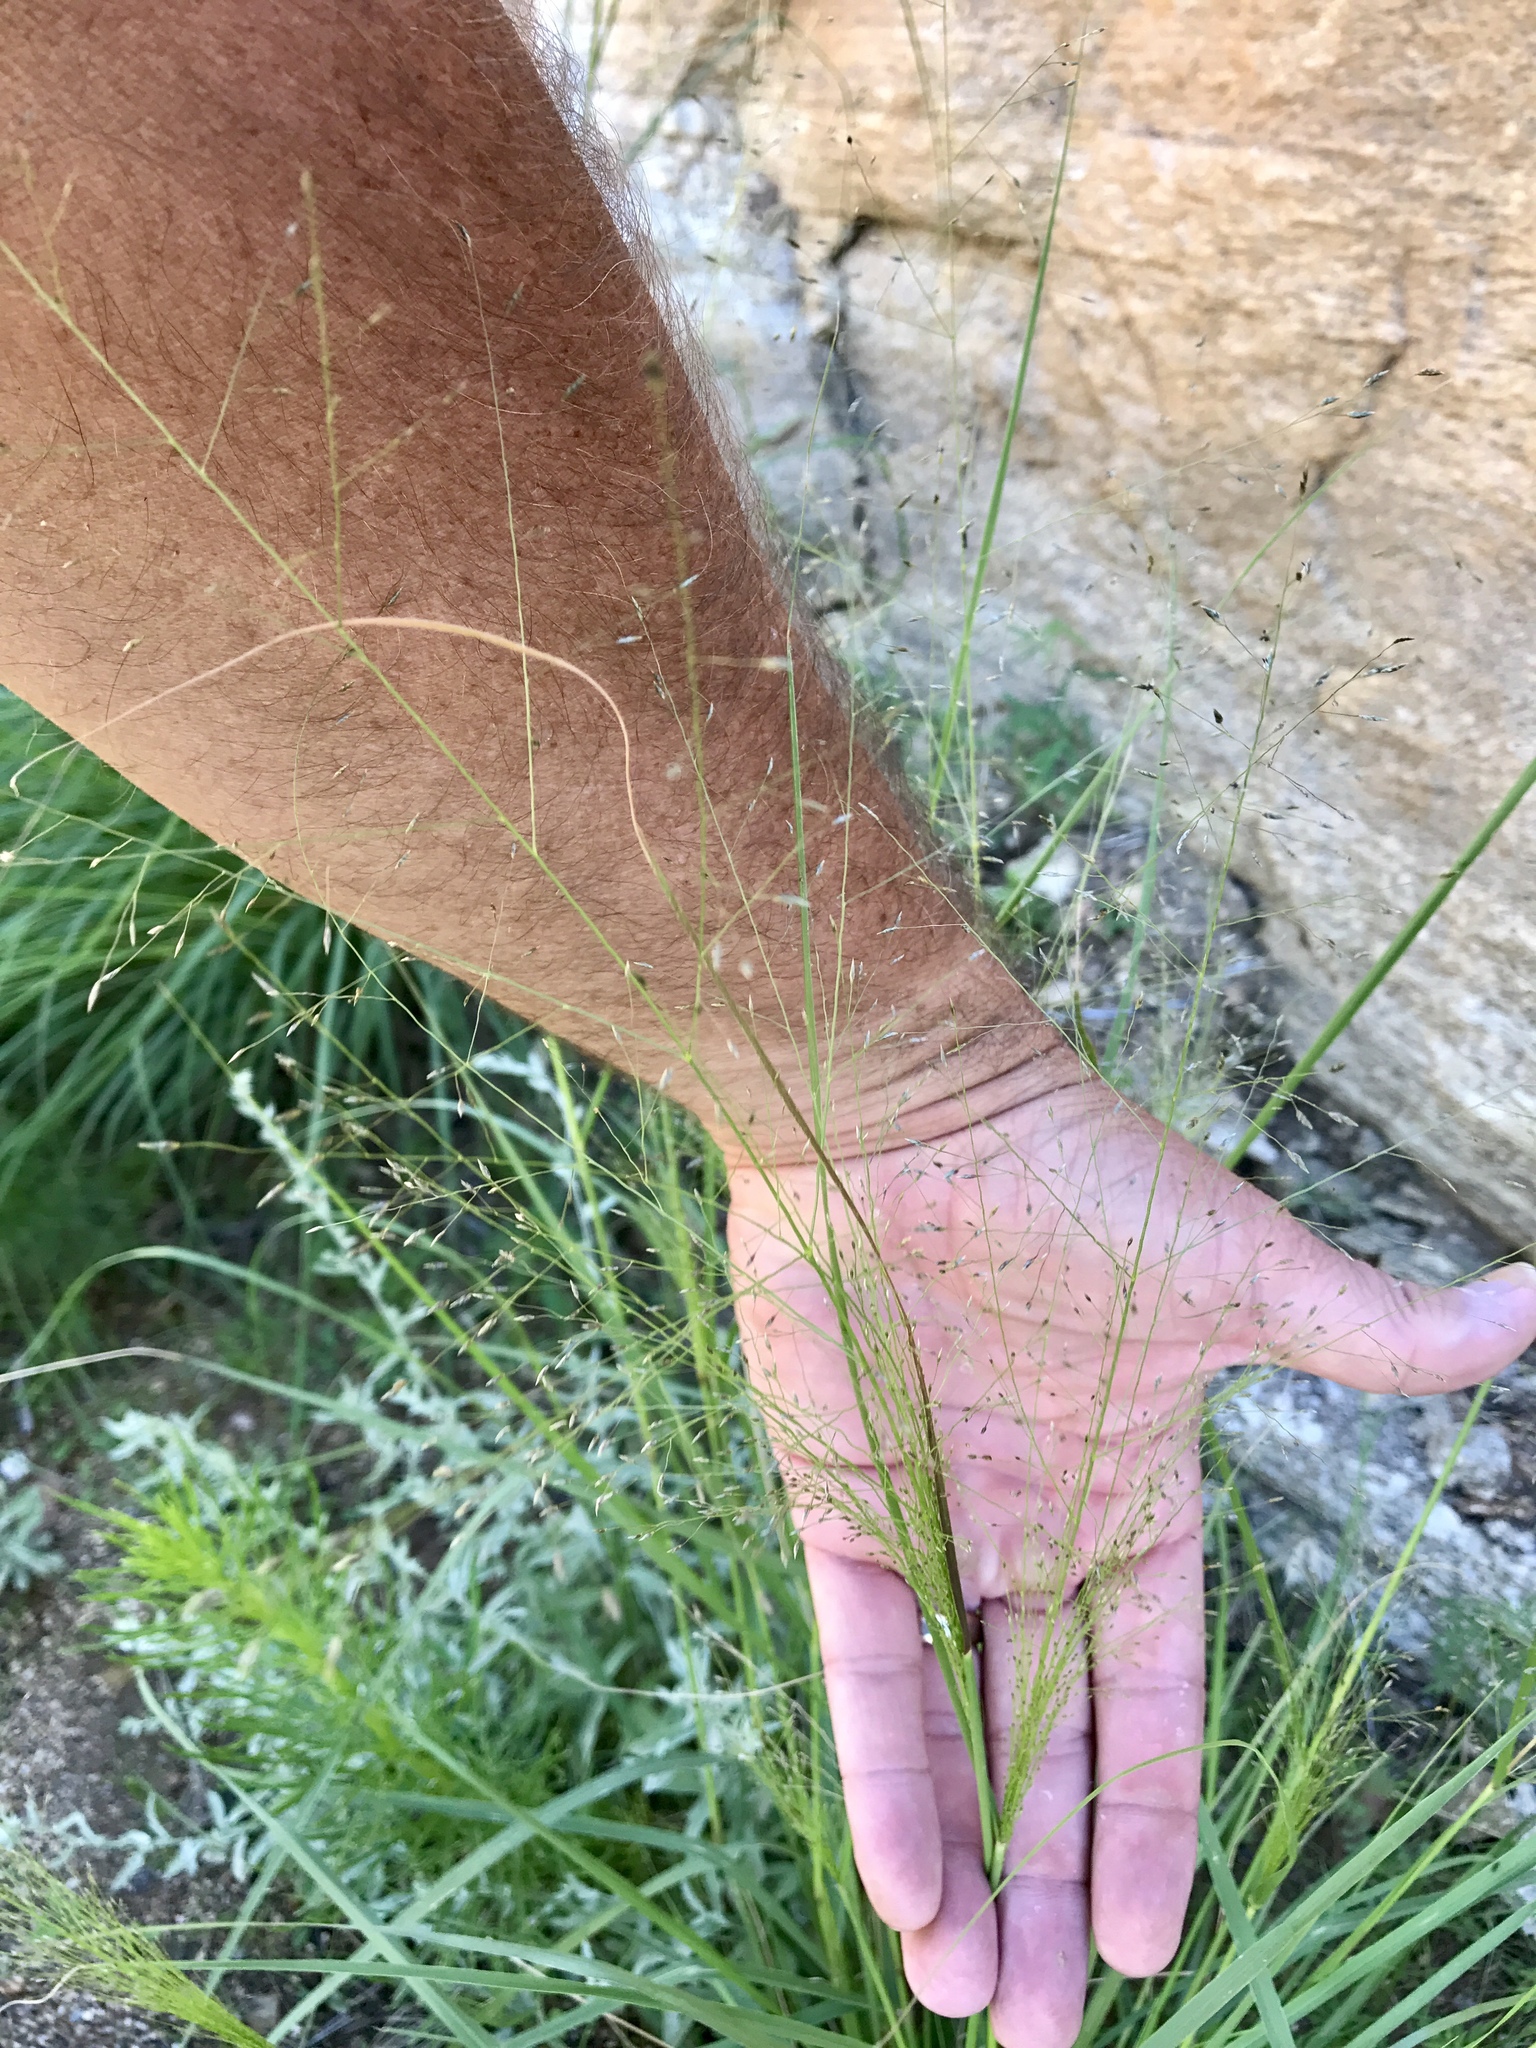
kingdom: Plantae
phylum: Tracheophyta
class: Liliopsida
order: Poales
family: Poaceae
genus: Eragrostis
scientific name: Eragrostis intermedia
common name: Plains love grass
